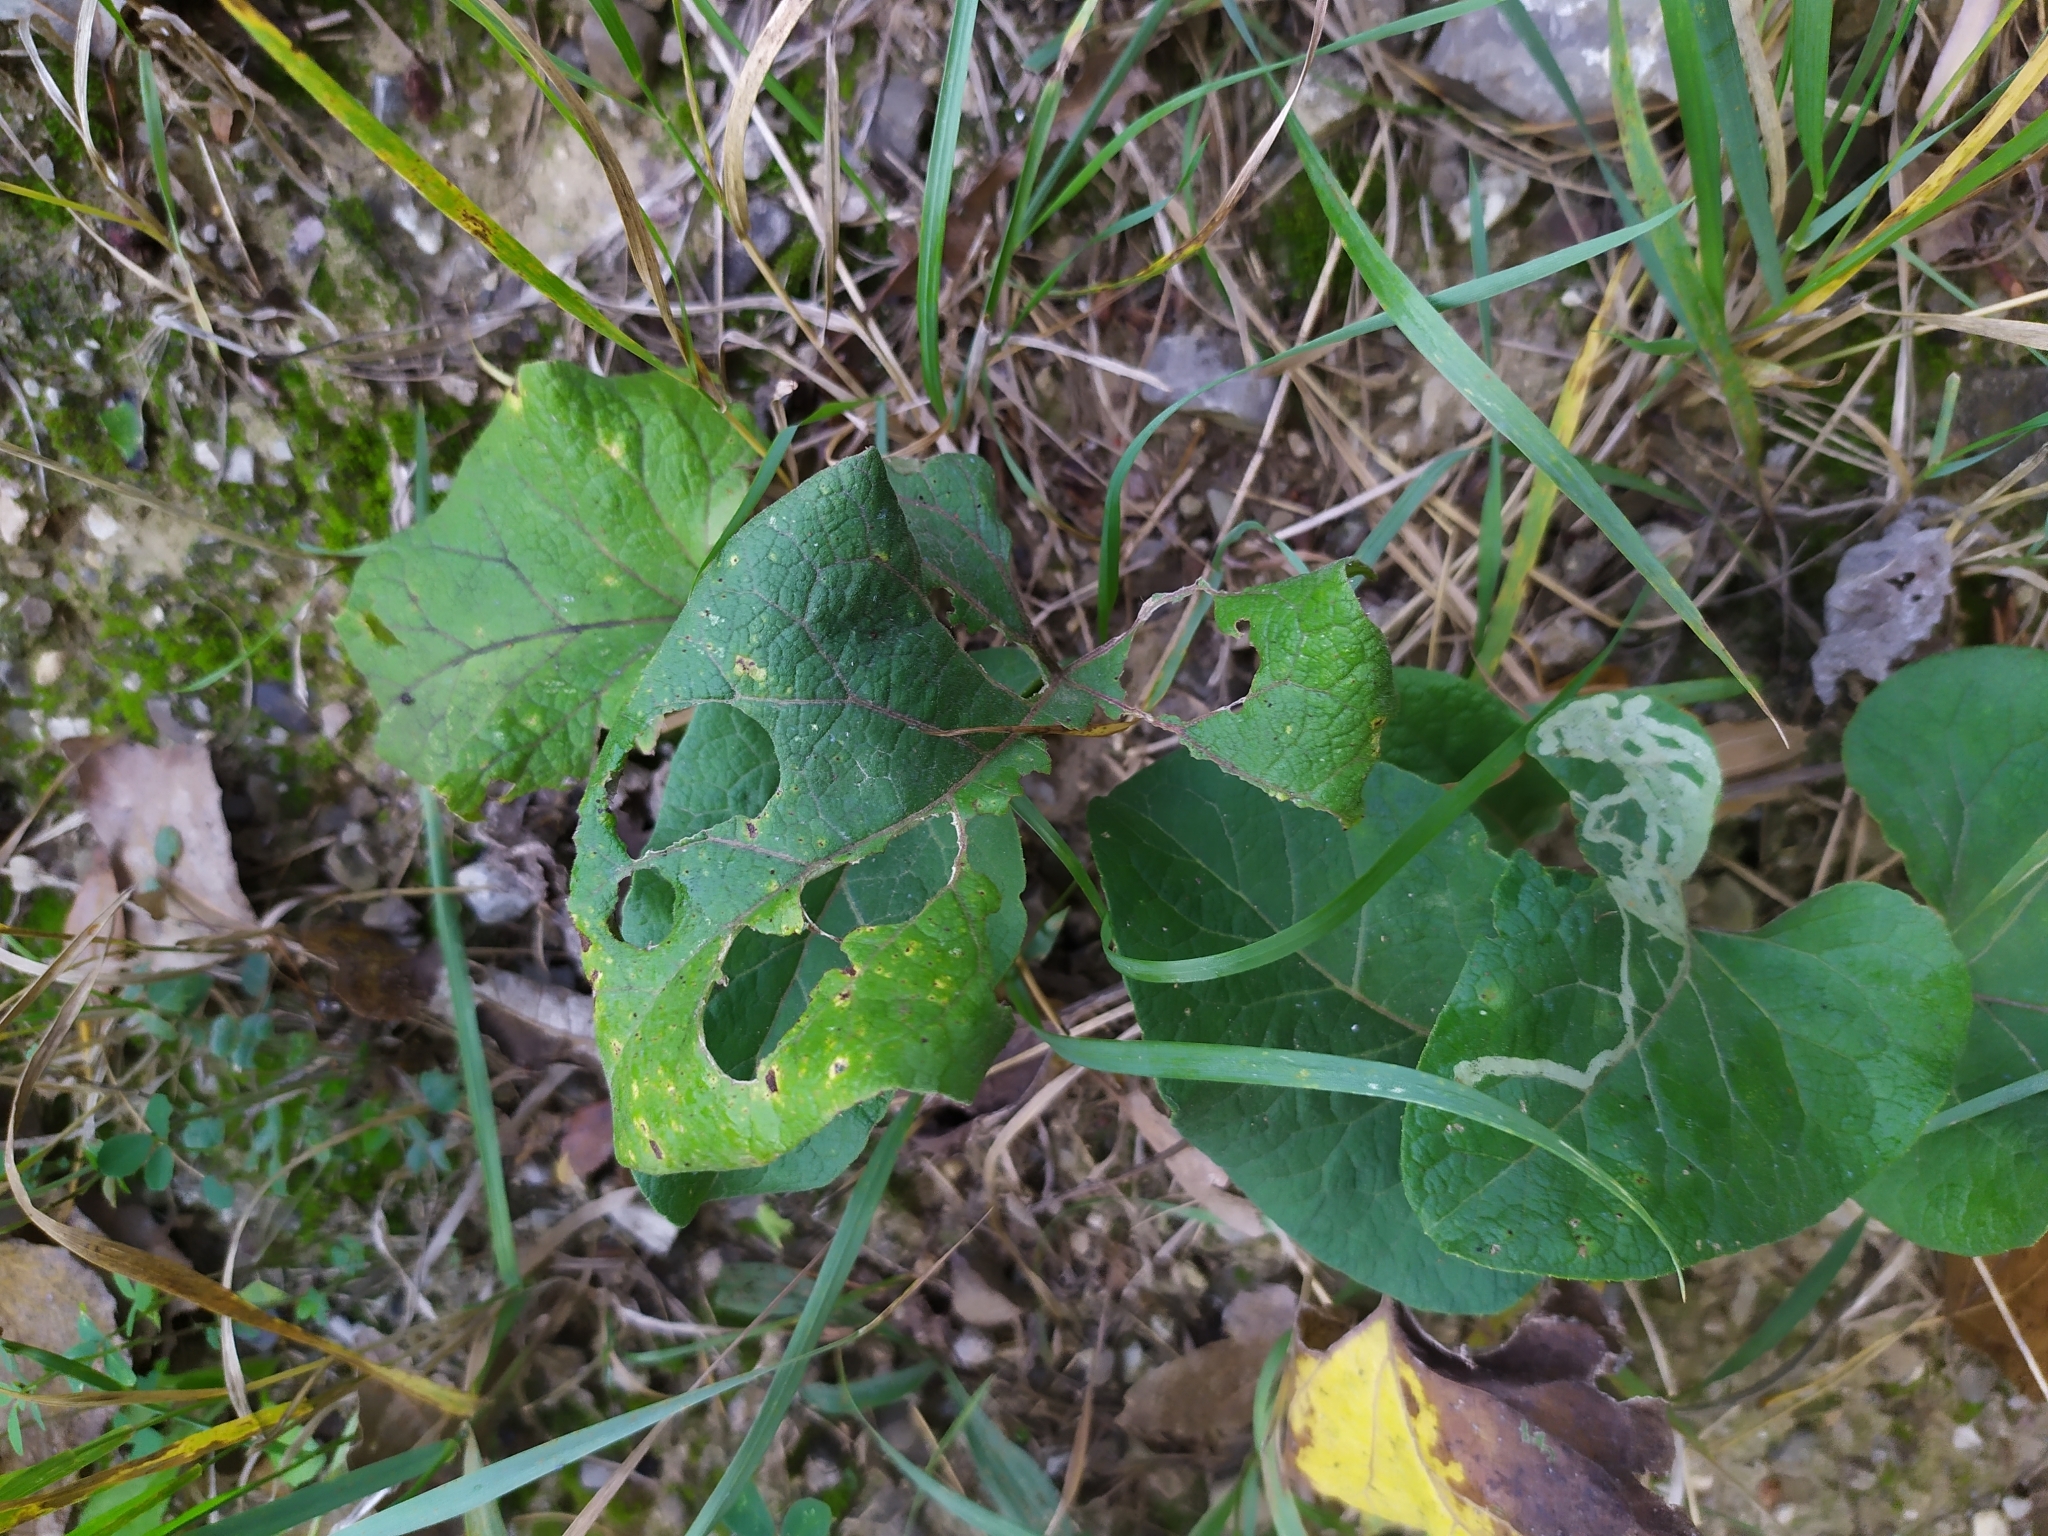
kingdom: Plantae
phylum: Tracheophyta
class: Magnoliopsida
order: Asterales
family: Asteraceae
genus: Arctium
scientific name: Arctium lappa
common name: Greater burdock
